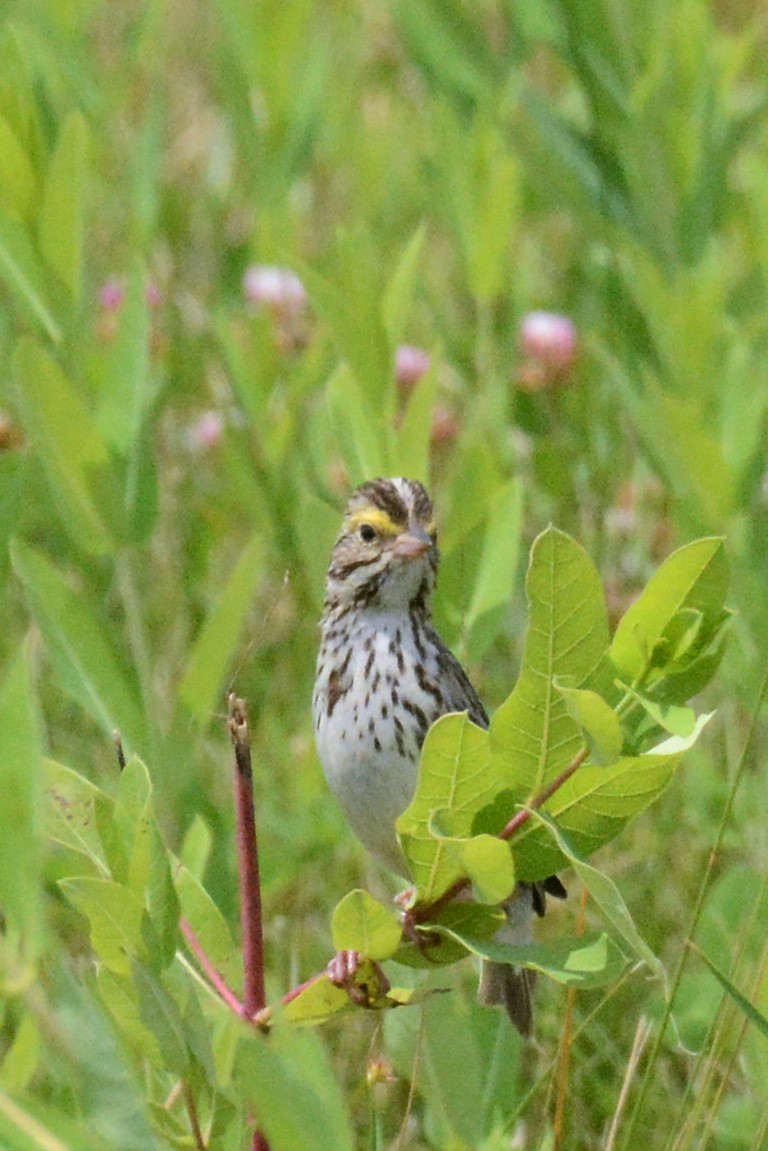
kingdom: Animalia
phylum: Chordata
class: Aves
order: Passeriformes
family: Passerellidae
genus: Passerculus
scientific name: Passerculus sandwichensis
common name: Savannah sparrow
